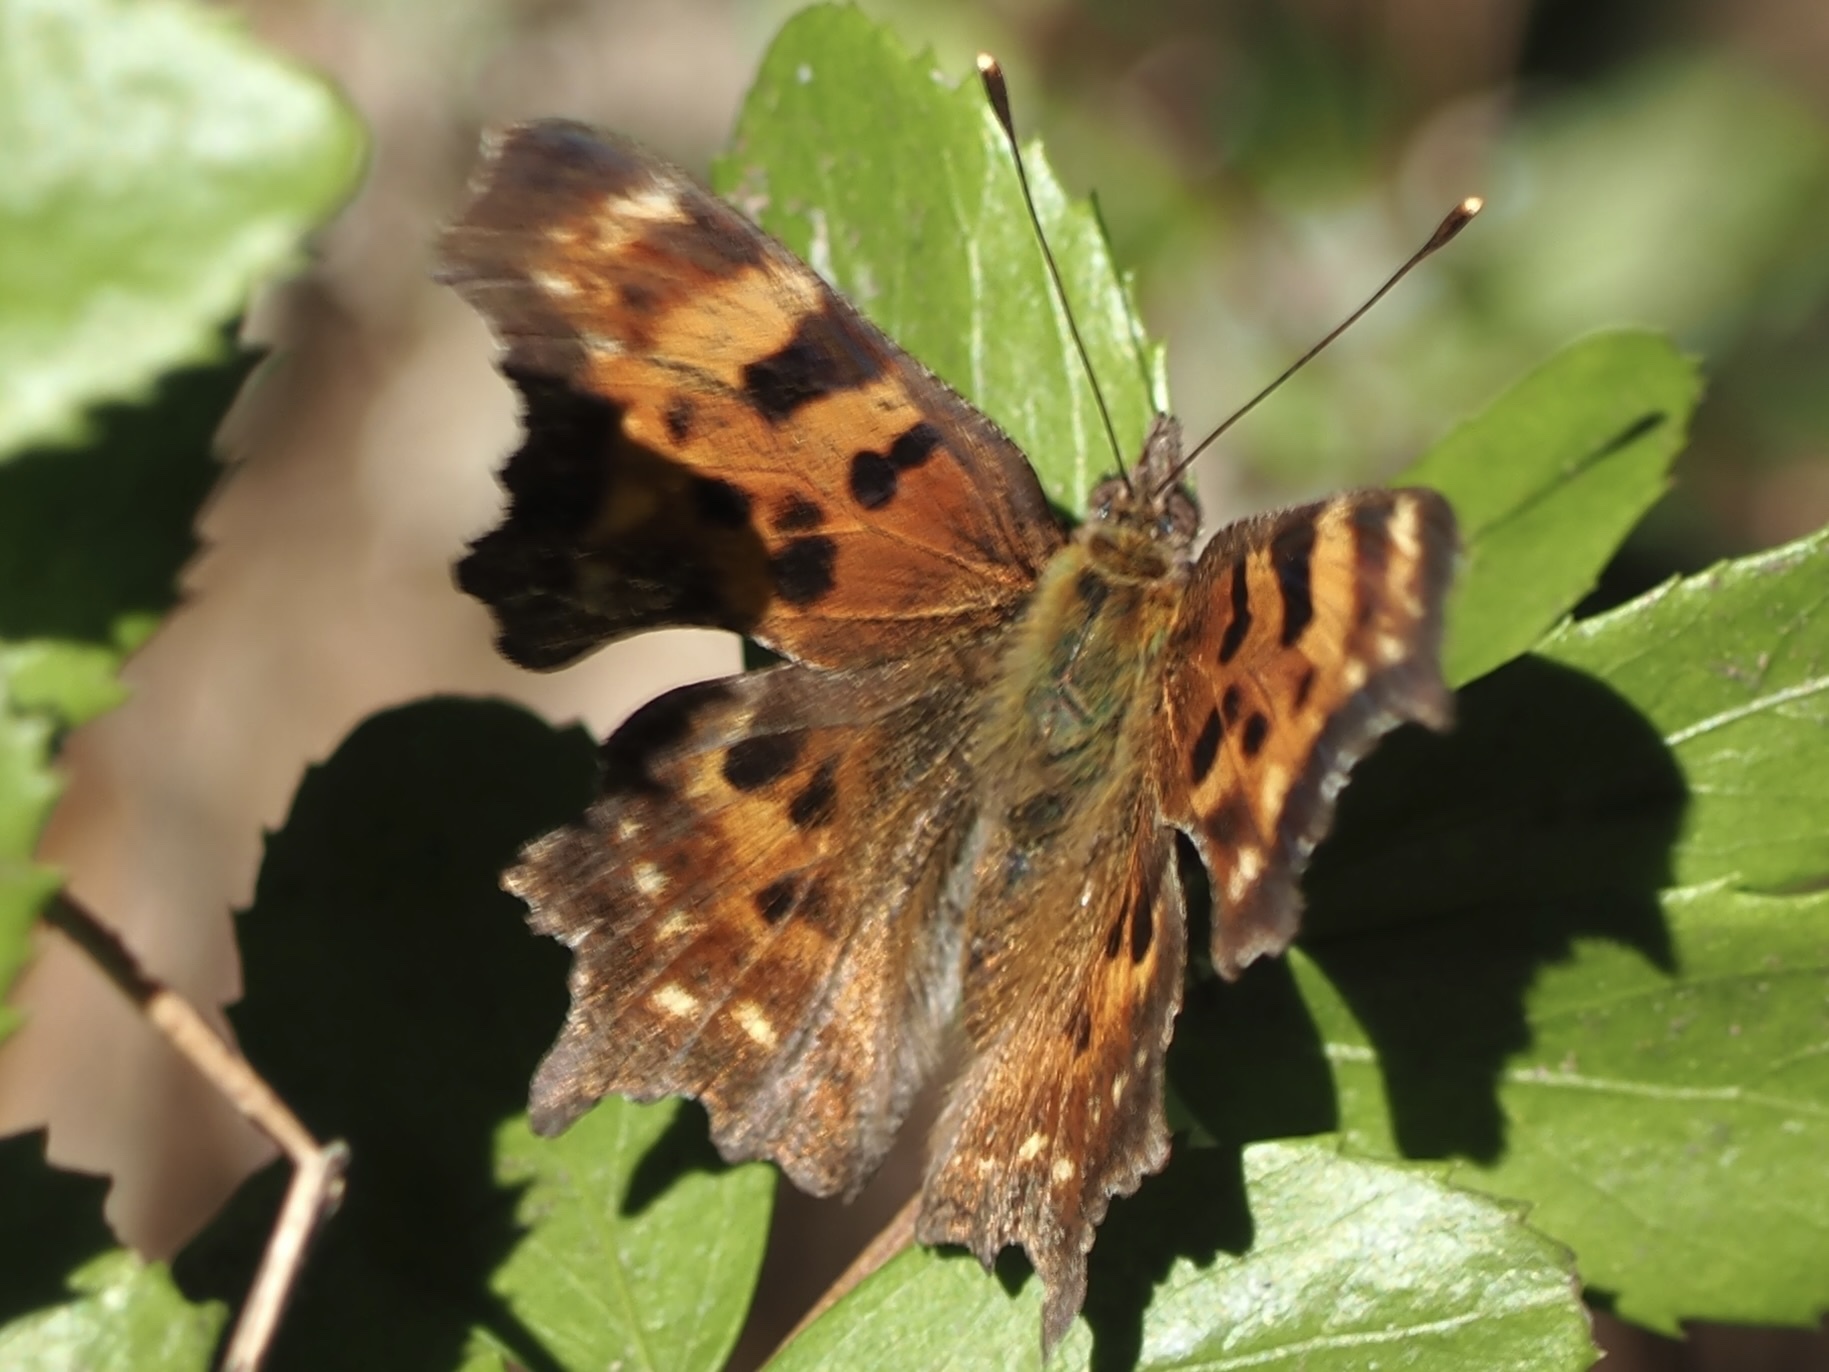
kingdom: Animalia
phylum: Arthropoda
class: Insecta
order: Lepidoptera
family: Nymphalidae
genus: Polygonia
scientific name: Polygonia faunus
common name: Green comma
